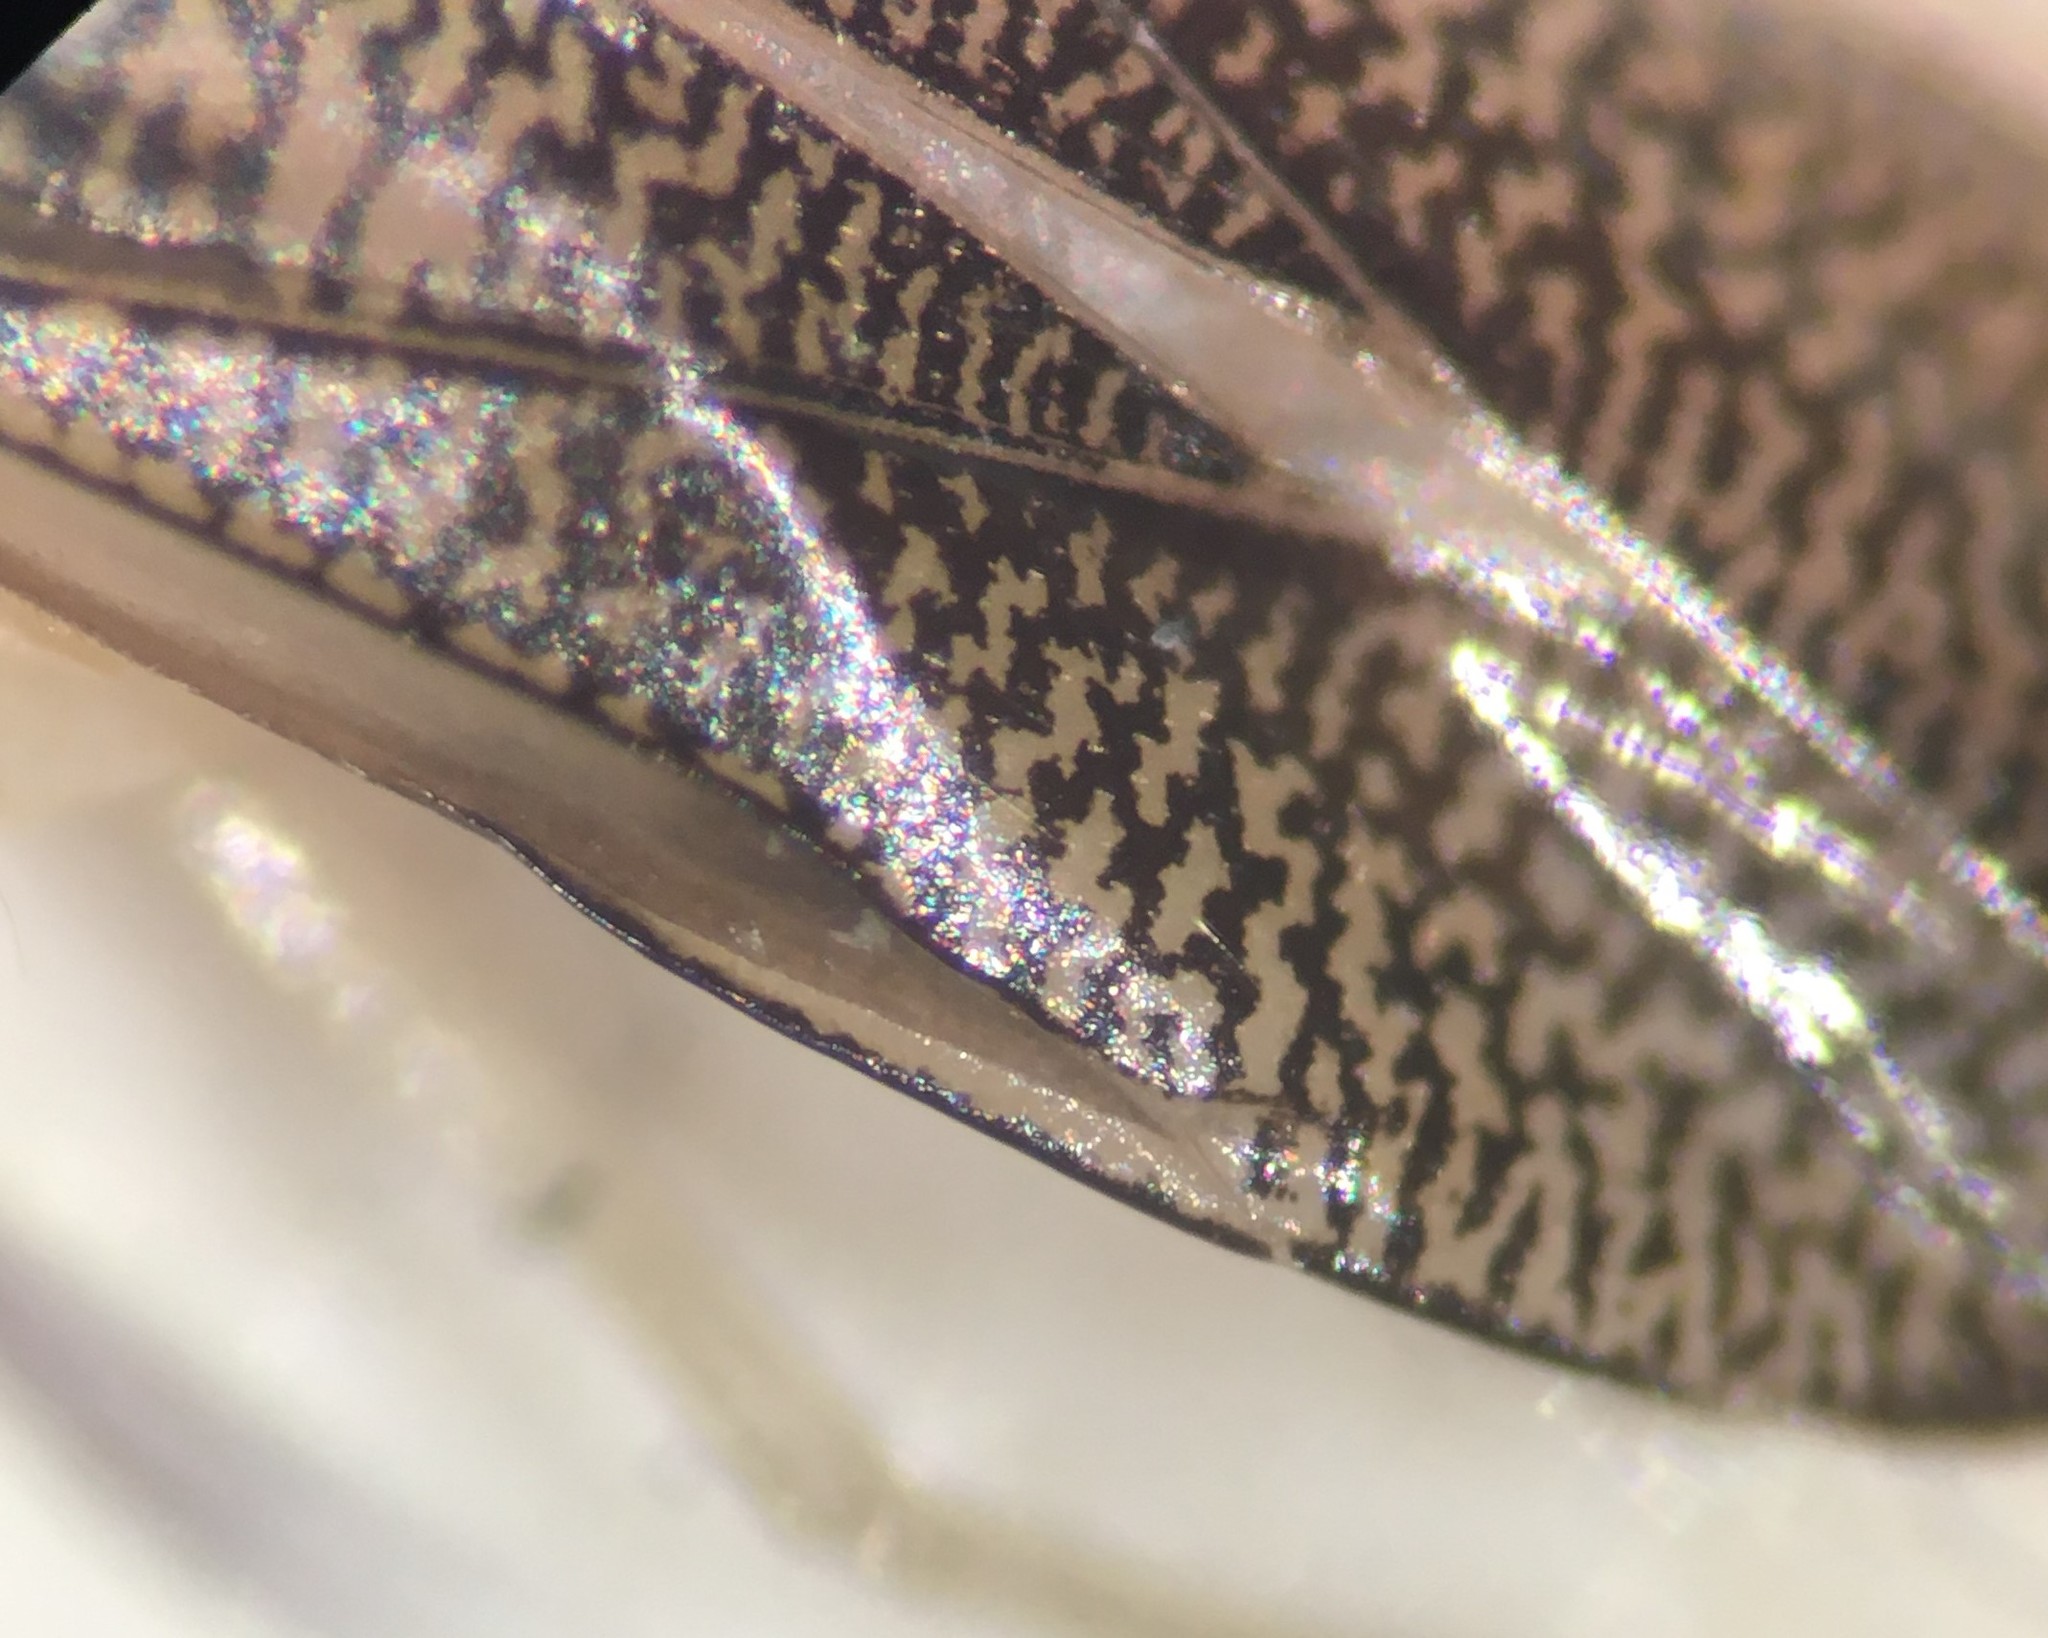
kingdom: Animalia
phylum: Arthropoda
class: Insecta
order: Hemiptera
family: Corixidae
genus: Trichocorixa
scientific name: Trichocorixa reticulata
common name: Water boatman
